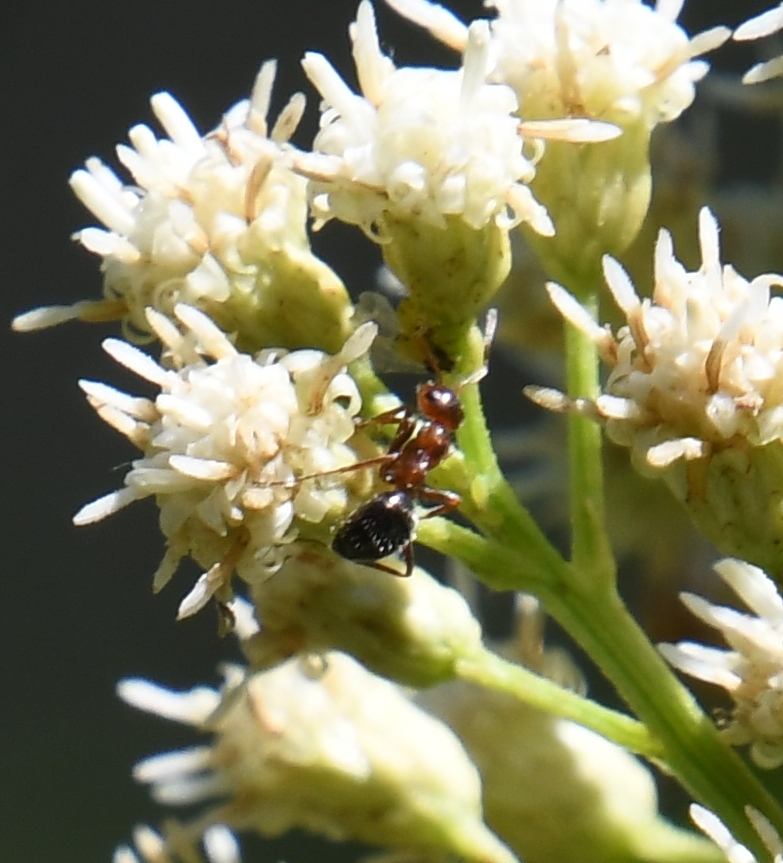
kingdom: Animalia
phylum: Arthropoda
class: Insecta
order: Hymenoptera
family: Formicidae
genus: Formica
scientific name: Formica perpilosa
